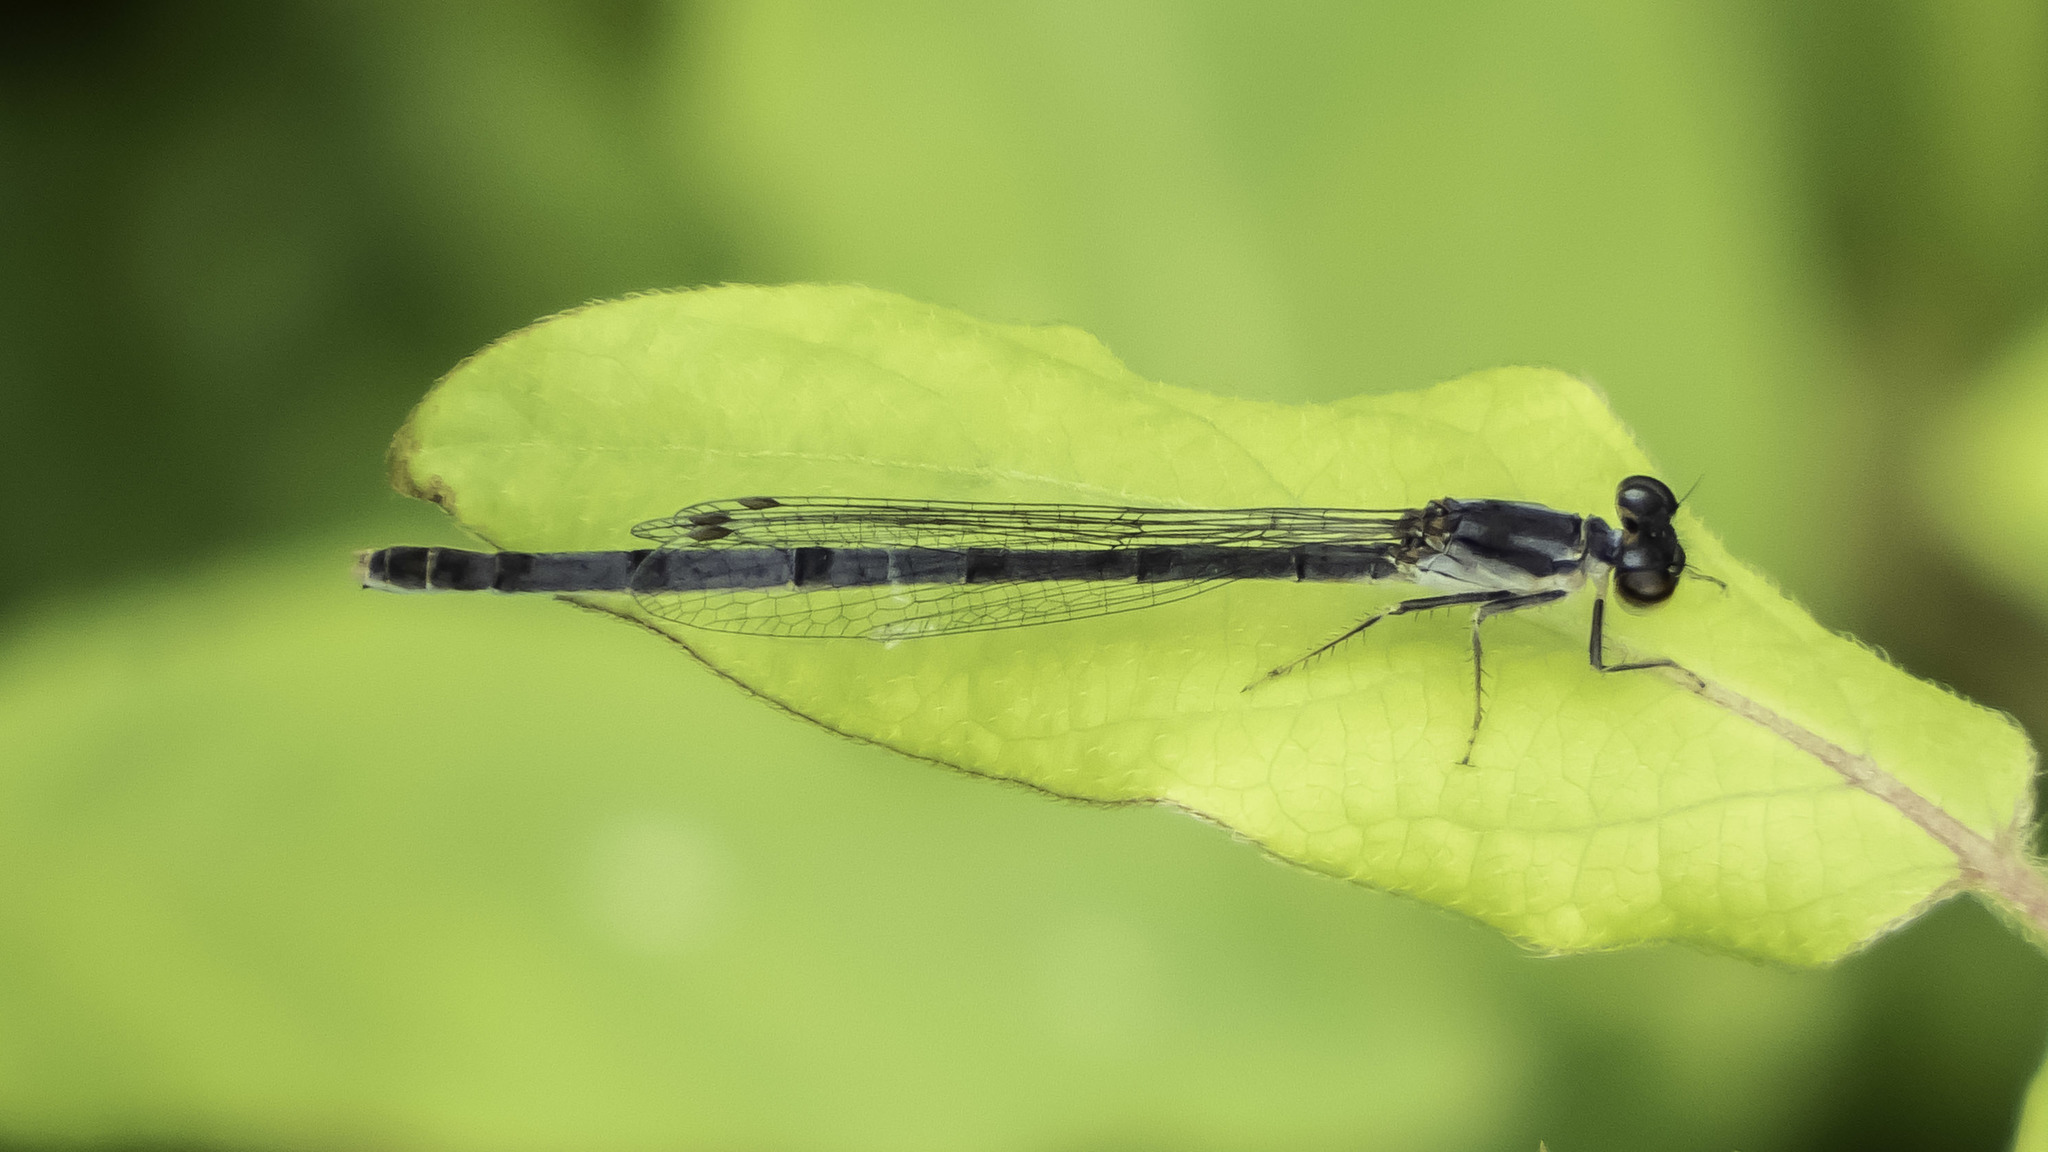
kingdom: Animalia
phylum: Arthropoda
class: Insecta
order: Odonata
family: Coenagrionidae
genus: Ischnura
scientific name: Ischnura posita
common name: Fragile forktail
